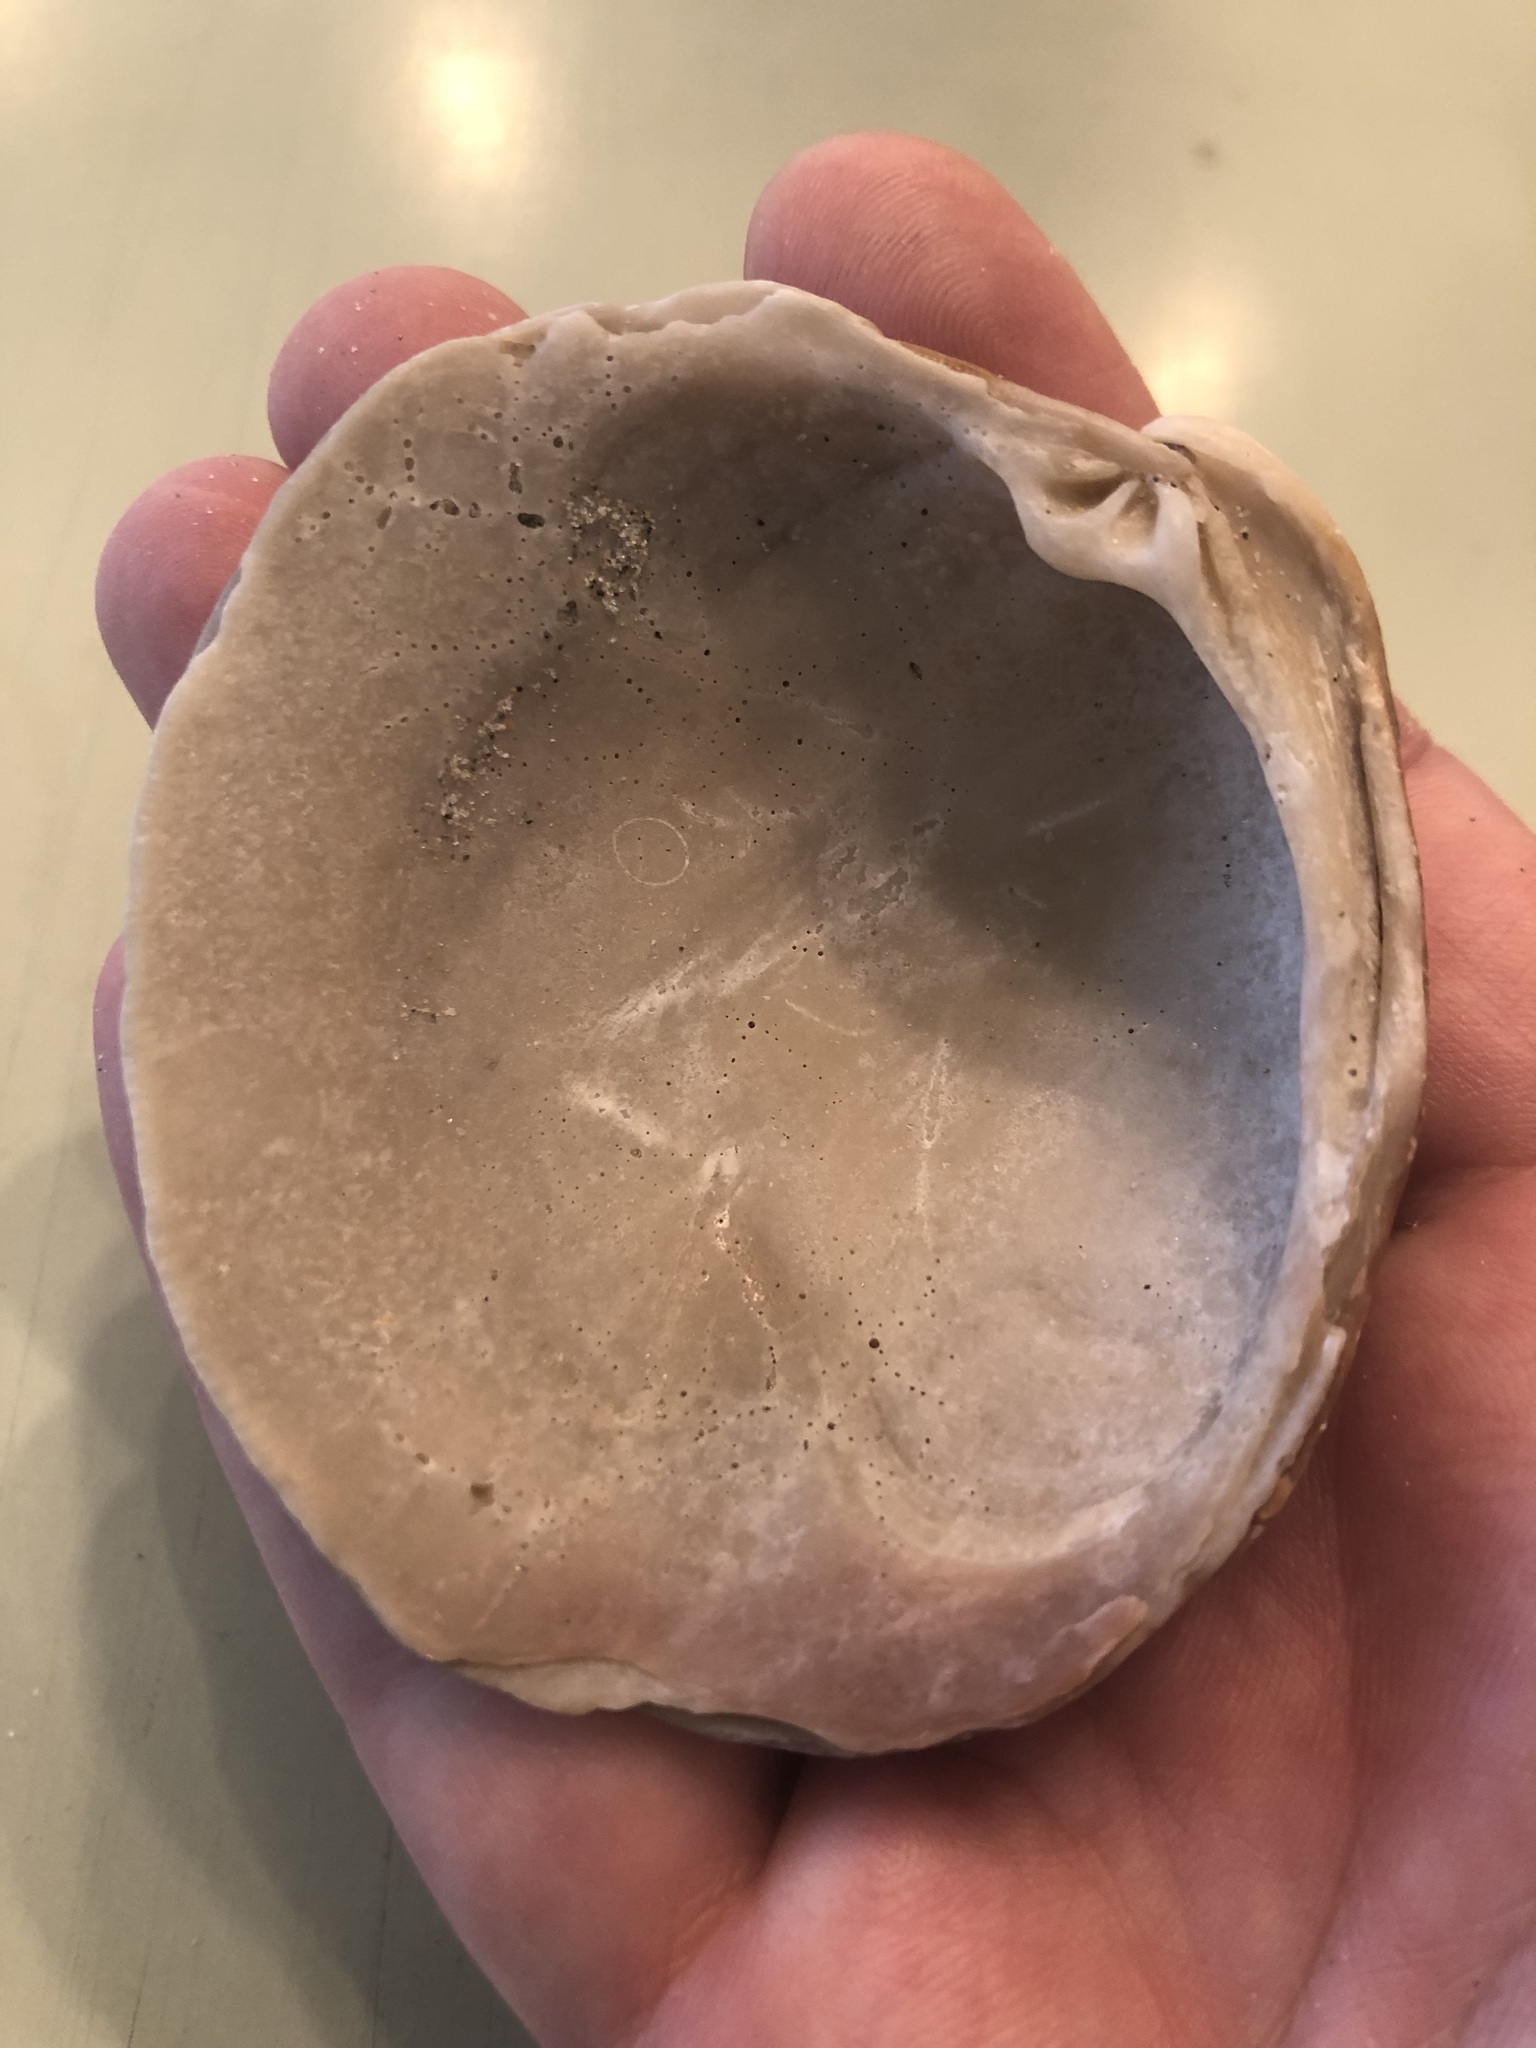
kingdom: Animalia
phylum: Mollusca
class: Bivalvia
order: Venerida
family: Veneridae
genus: Mercenaria
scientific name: Mercenaria mercenaria
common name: American hard-shelled clam
